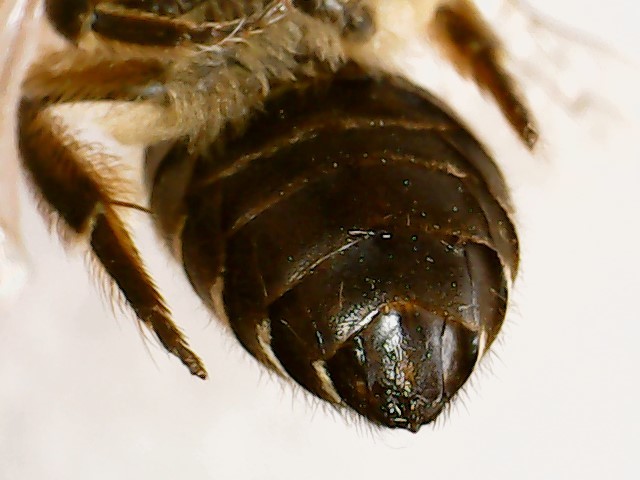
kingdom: Animalia
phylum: Arthropoda
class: Insecta
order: Hymenoptera
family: Colletidae
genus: Colletes
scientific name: Colletes inaequalis
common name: Unequal cellophane bee
